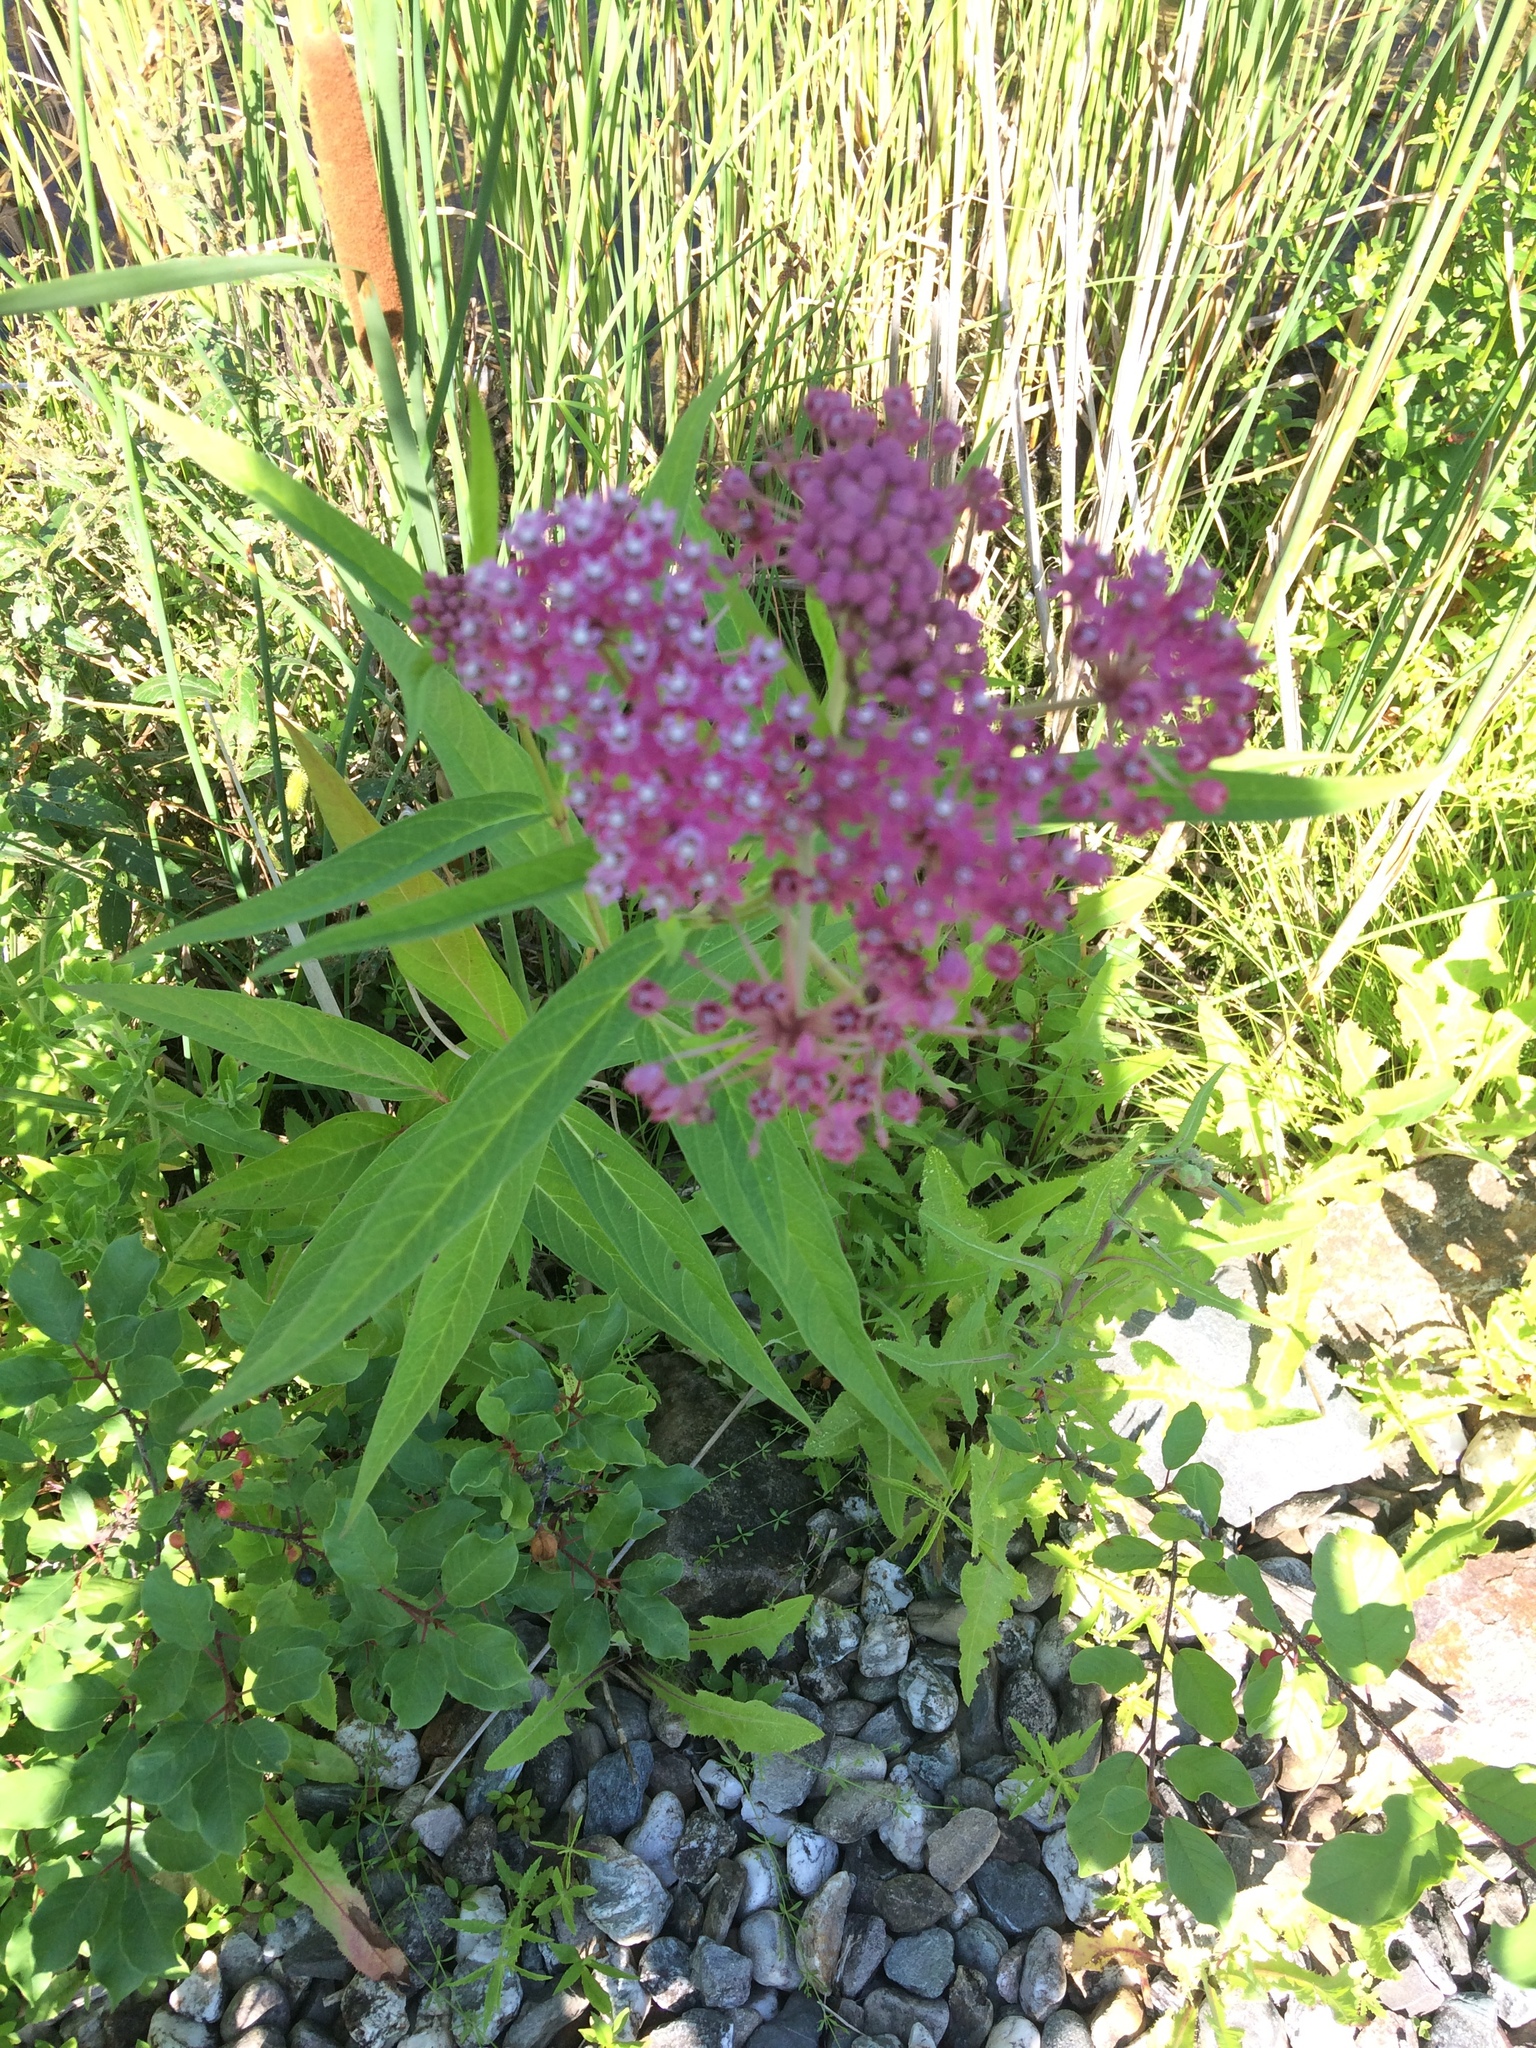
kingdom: Plantae
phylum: Tracheophyta
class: Magnoliopsida
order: Gentianales
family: Apocynaceae
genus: Asclepias
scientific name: Asclepias incarnata
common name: Swamp milkweed
